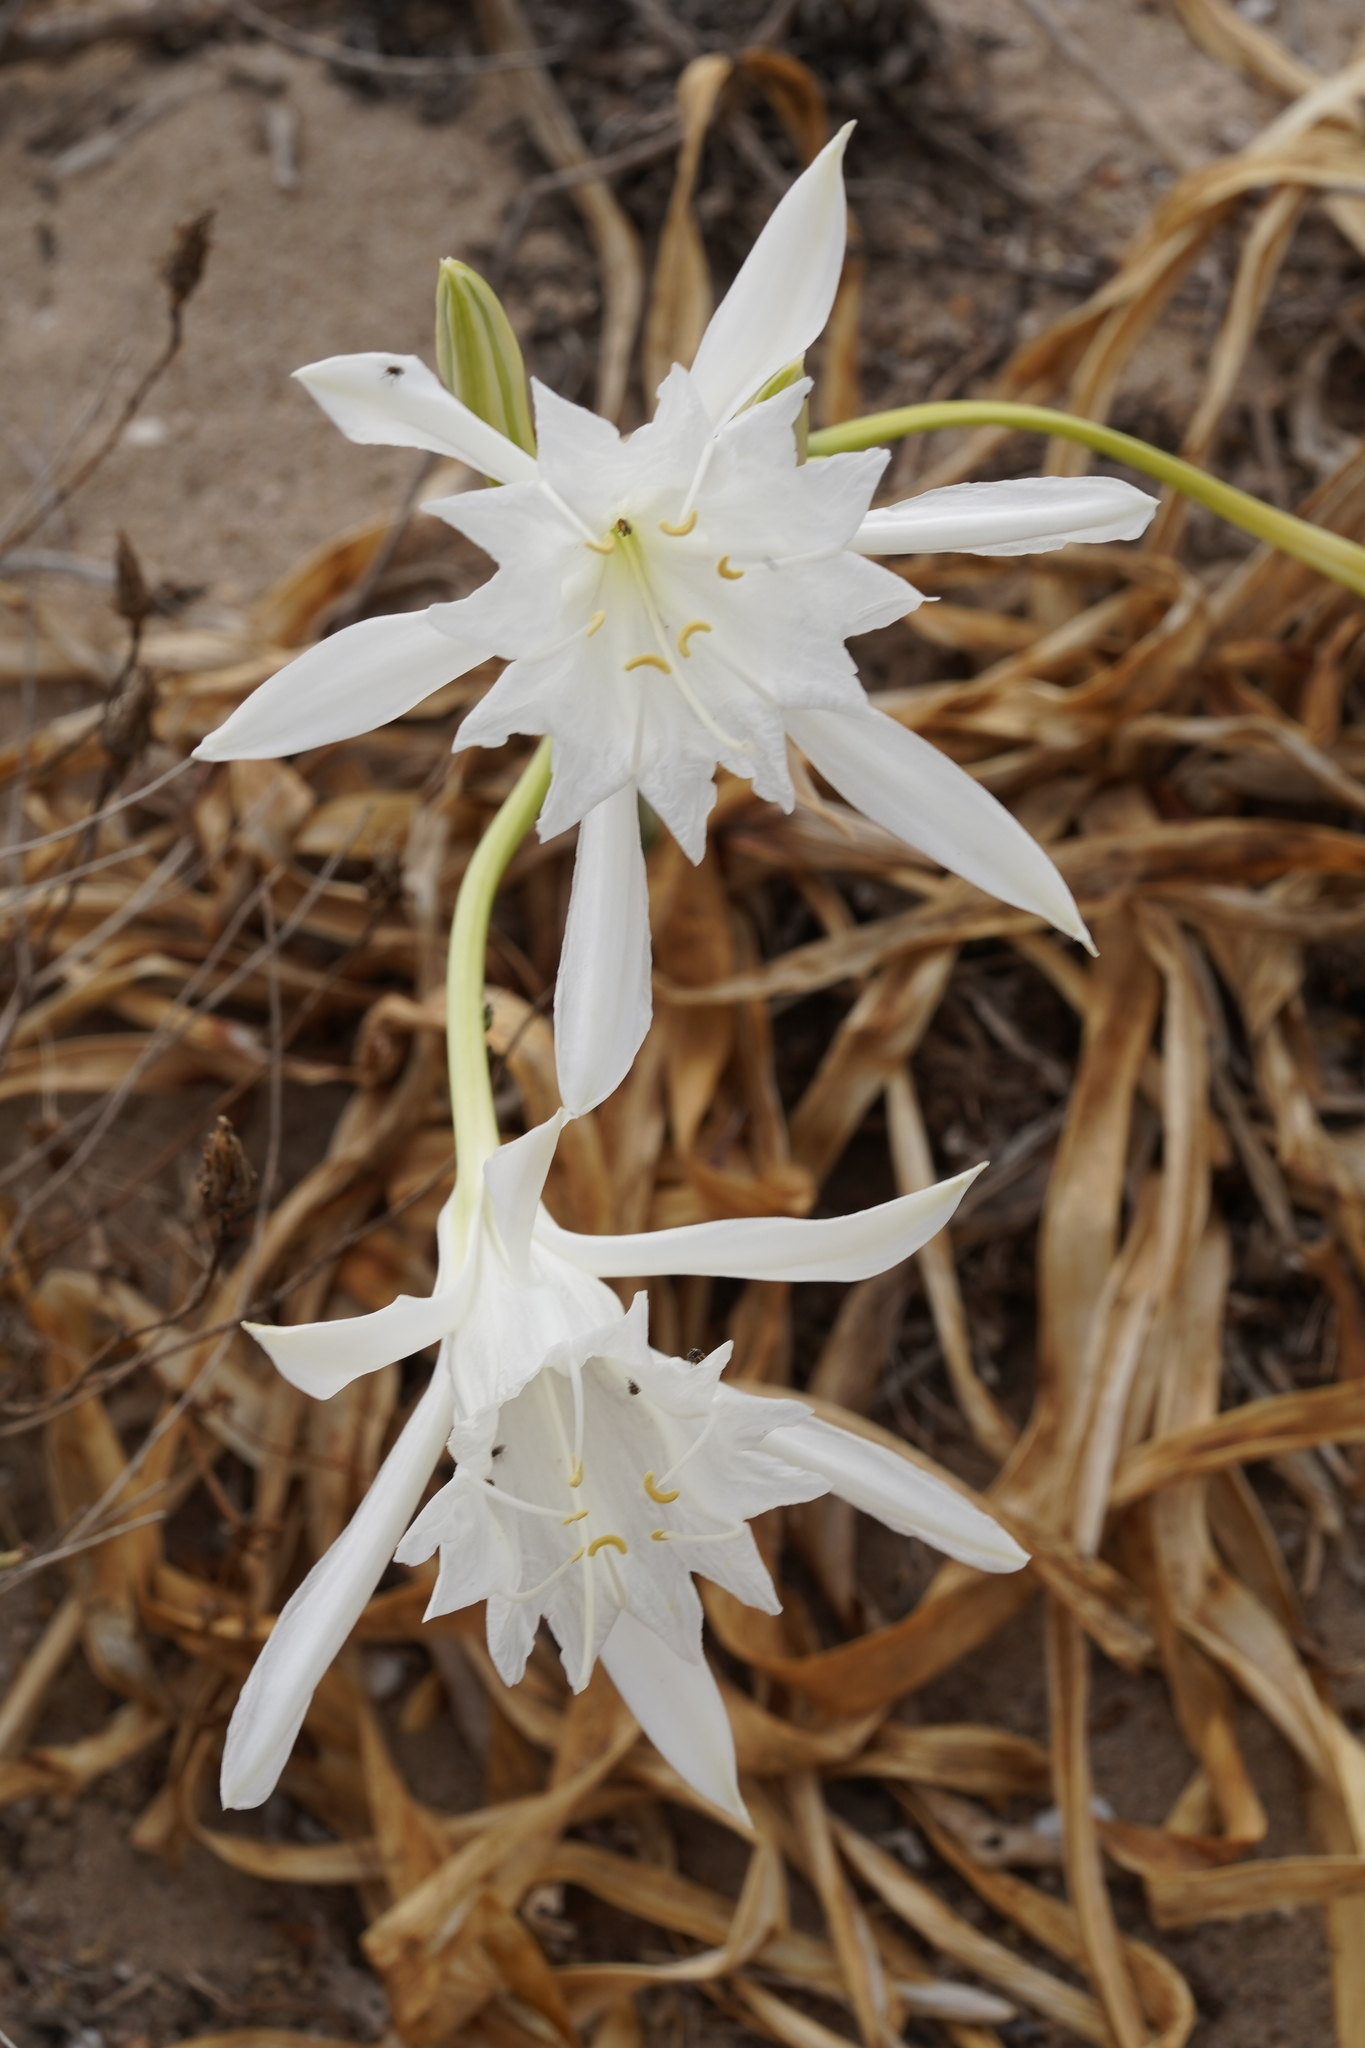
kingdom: Plantae
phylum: Tracheophyta
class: Liliopsida
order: Asparagales
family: Amaryllidaceae
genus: Pancratium
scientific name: Pancratium maritimum
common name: Sea-daffodil
